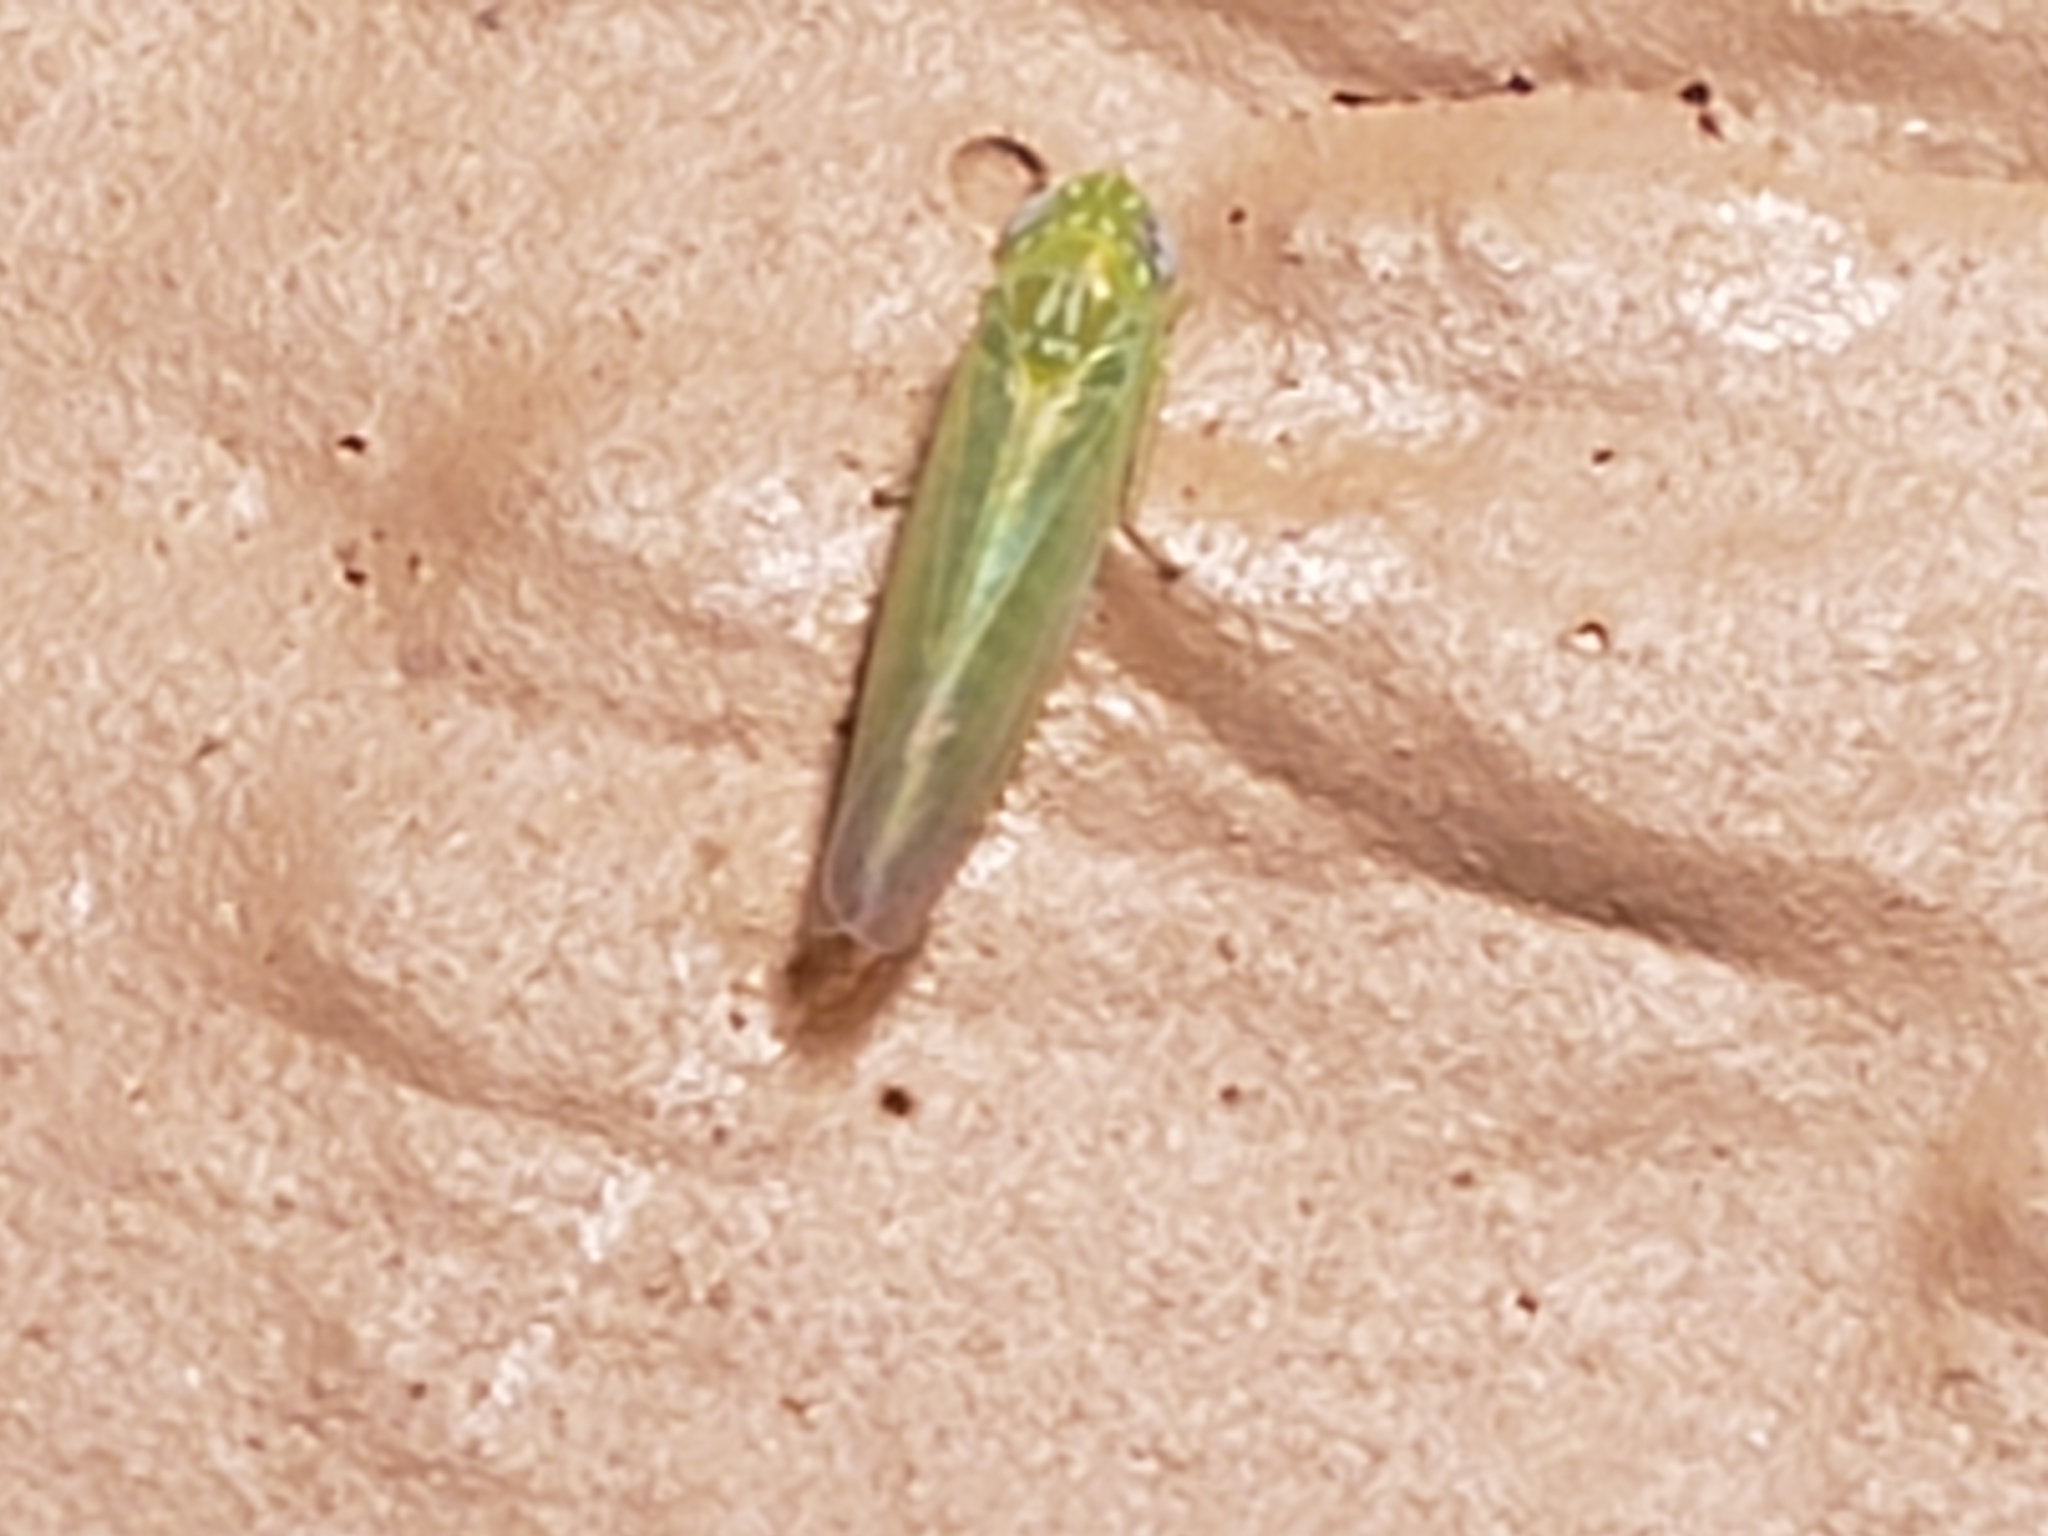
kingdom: Animalia
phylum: Arthropoda
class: Insecta
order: Hemiptera
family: Cicadellidae
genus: Empoasca
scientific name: Empoasca fabae
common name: Potato leafhopper
